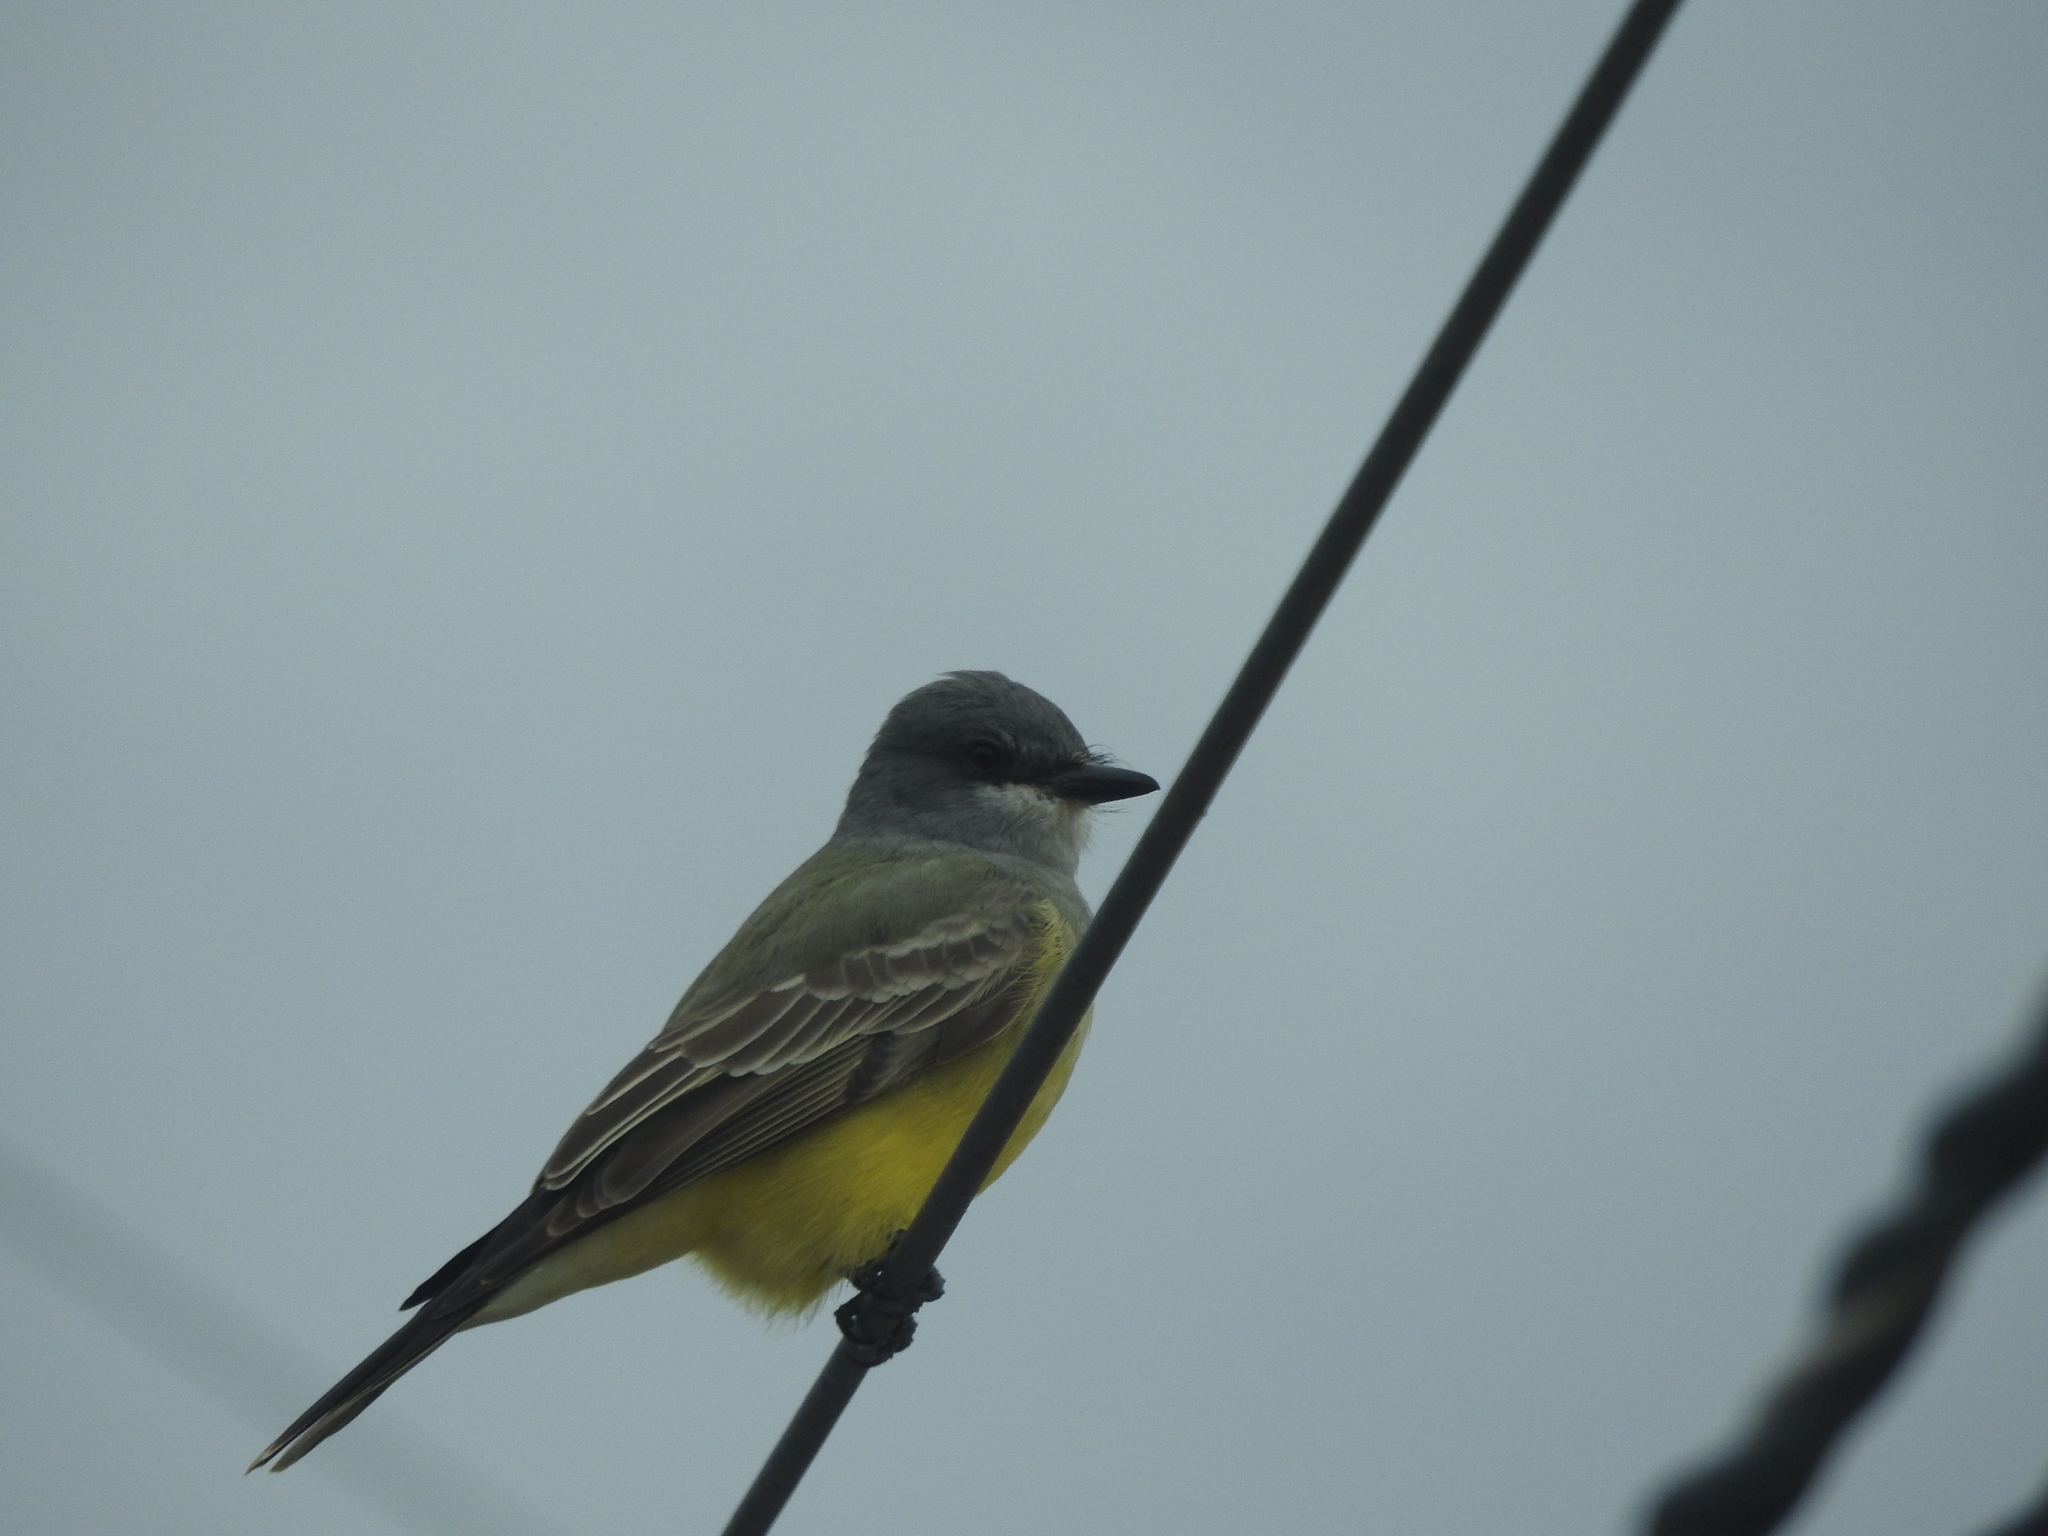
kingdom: Animalia
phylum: Chordata
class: Aves
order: Passeriformes
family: Tyrannidae
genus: Tyrannus
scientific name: Tyrannus vociferans
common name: Cassin's kingbird
